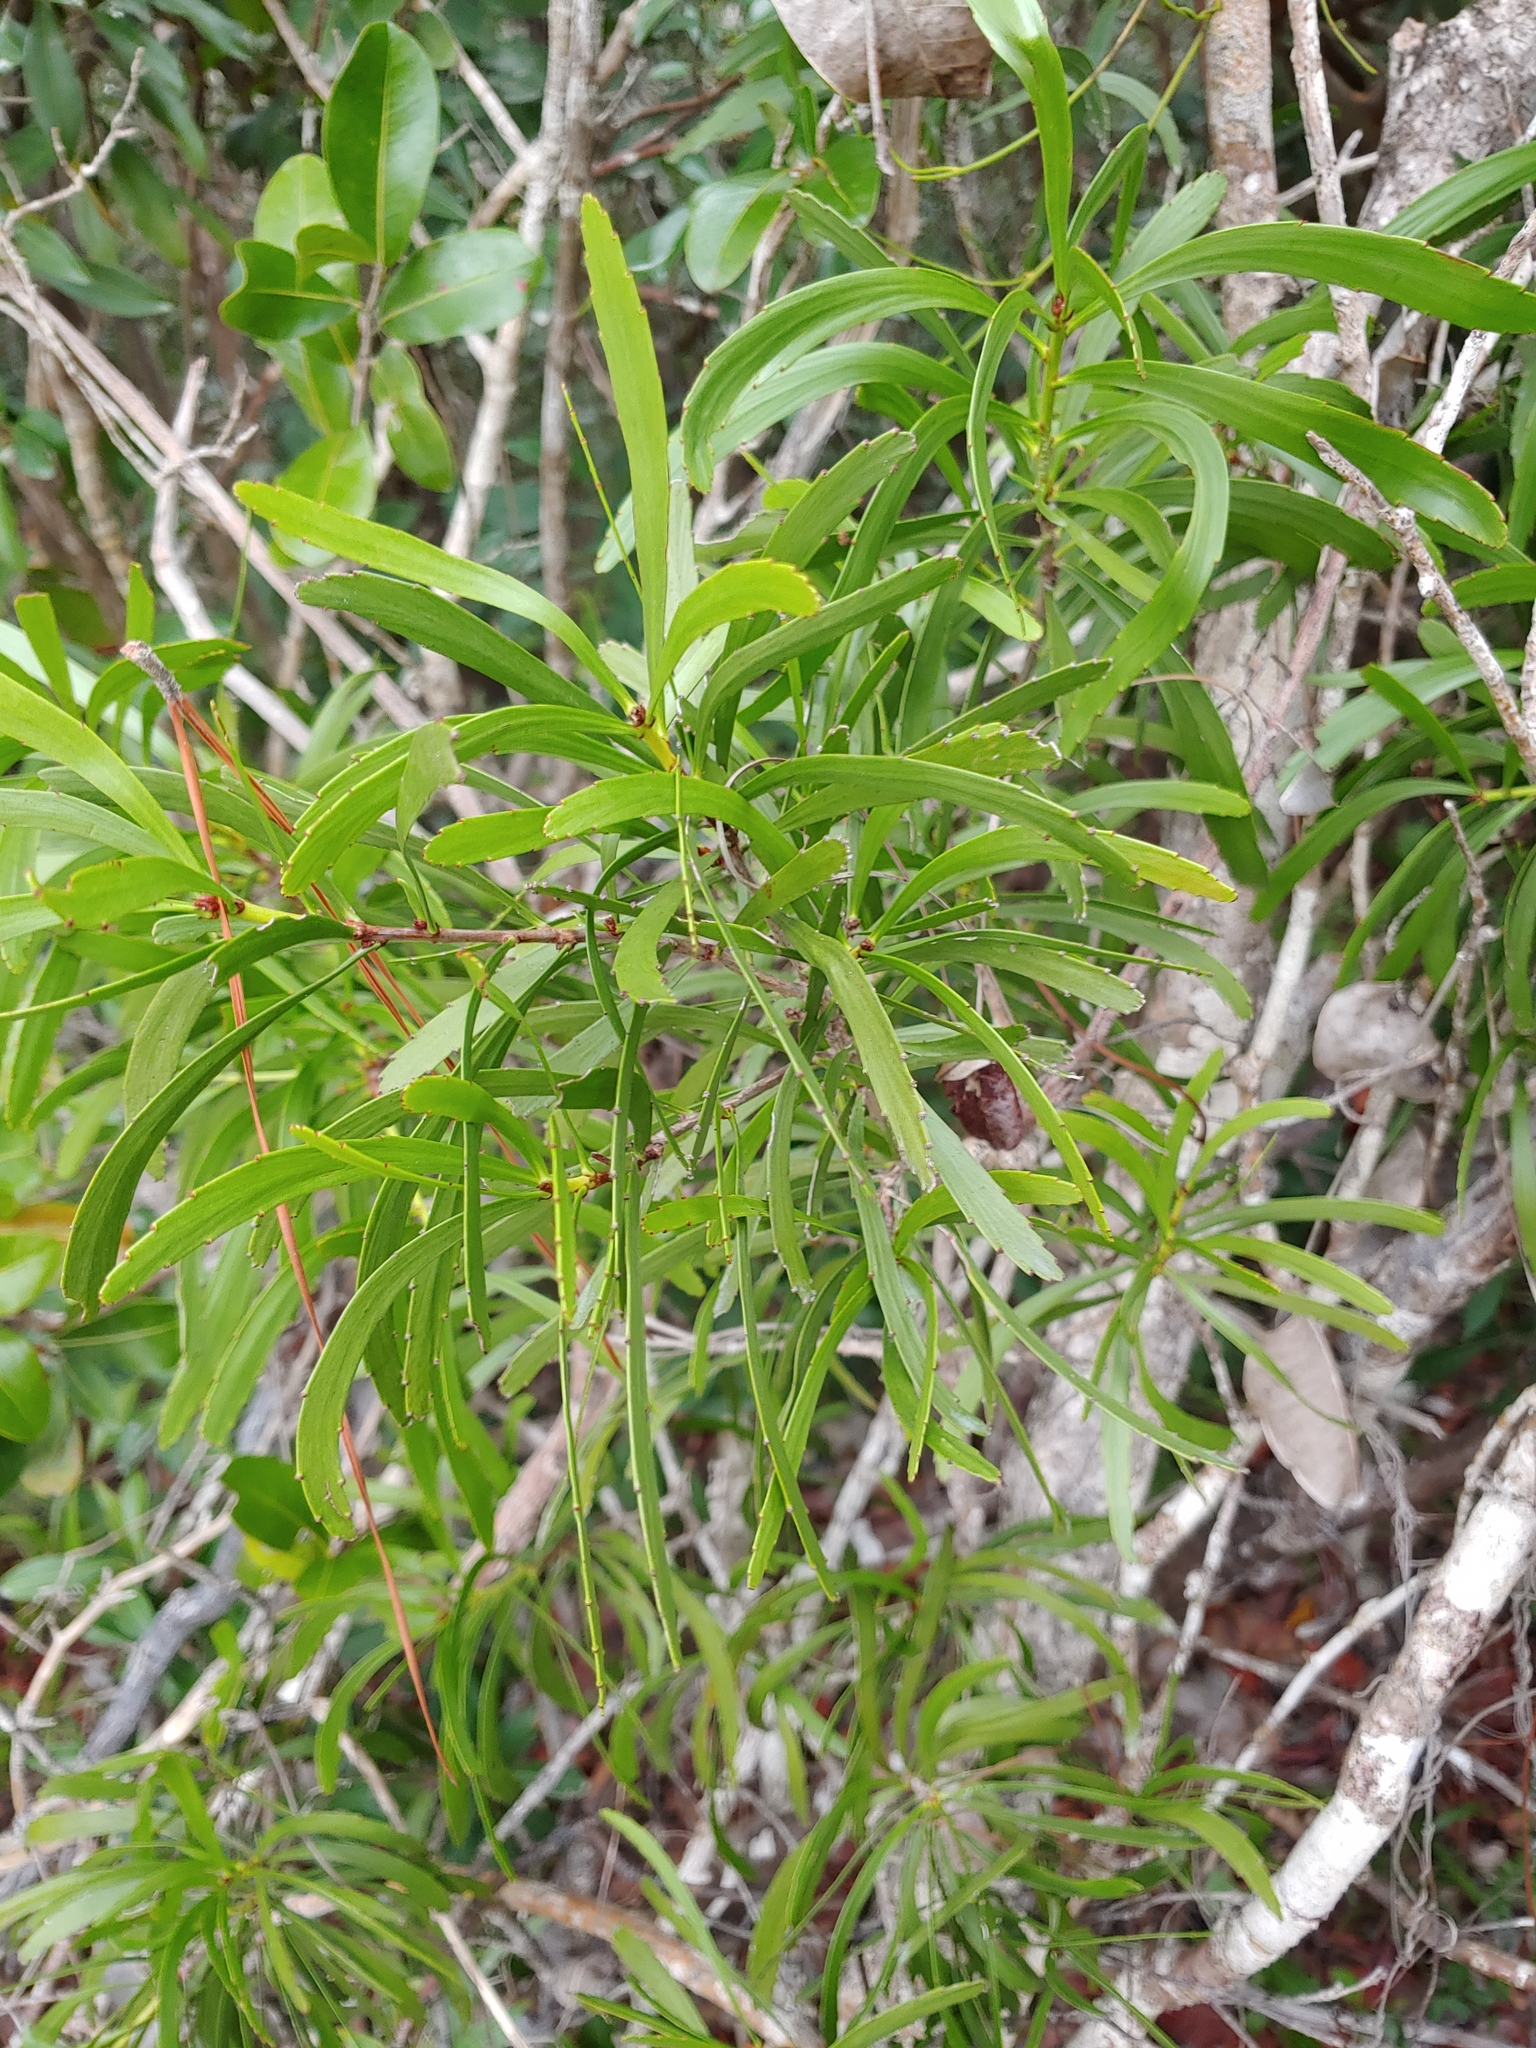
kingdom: Plantae
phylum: Tracheophyta
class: Magnoliopsida
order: Malpighiales
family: Phyllanthaceae
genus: Phyllanthus
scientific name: Phyllanthus epiphyllanthus
